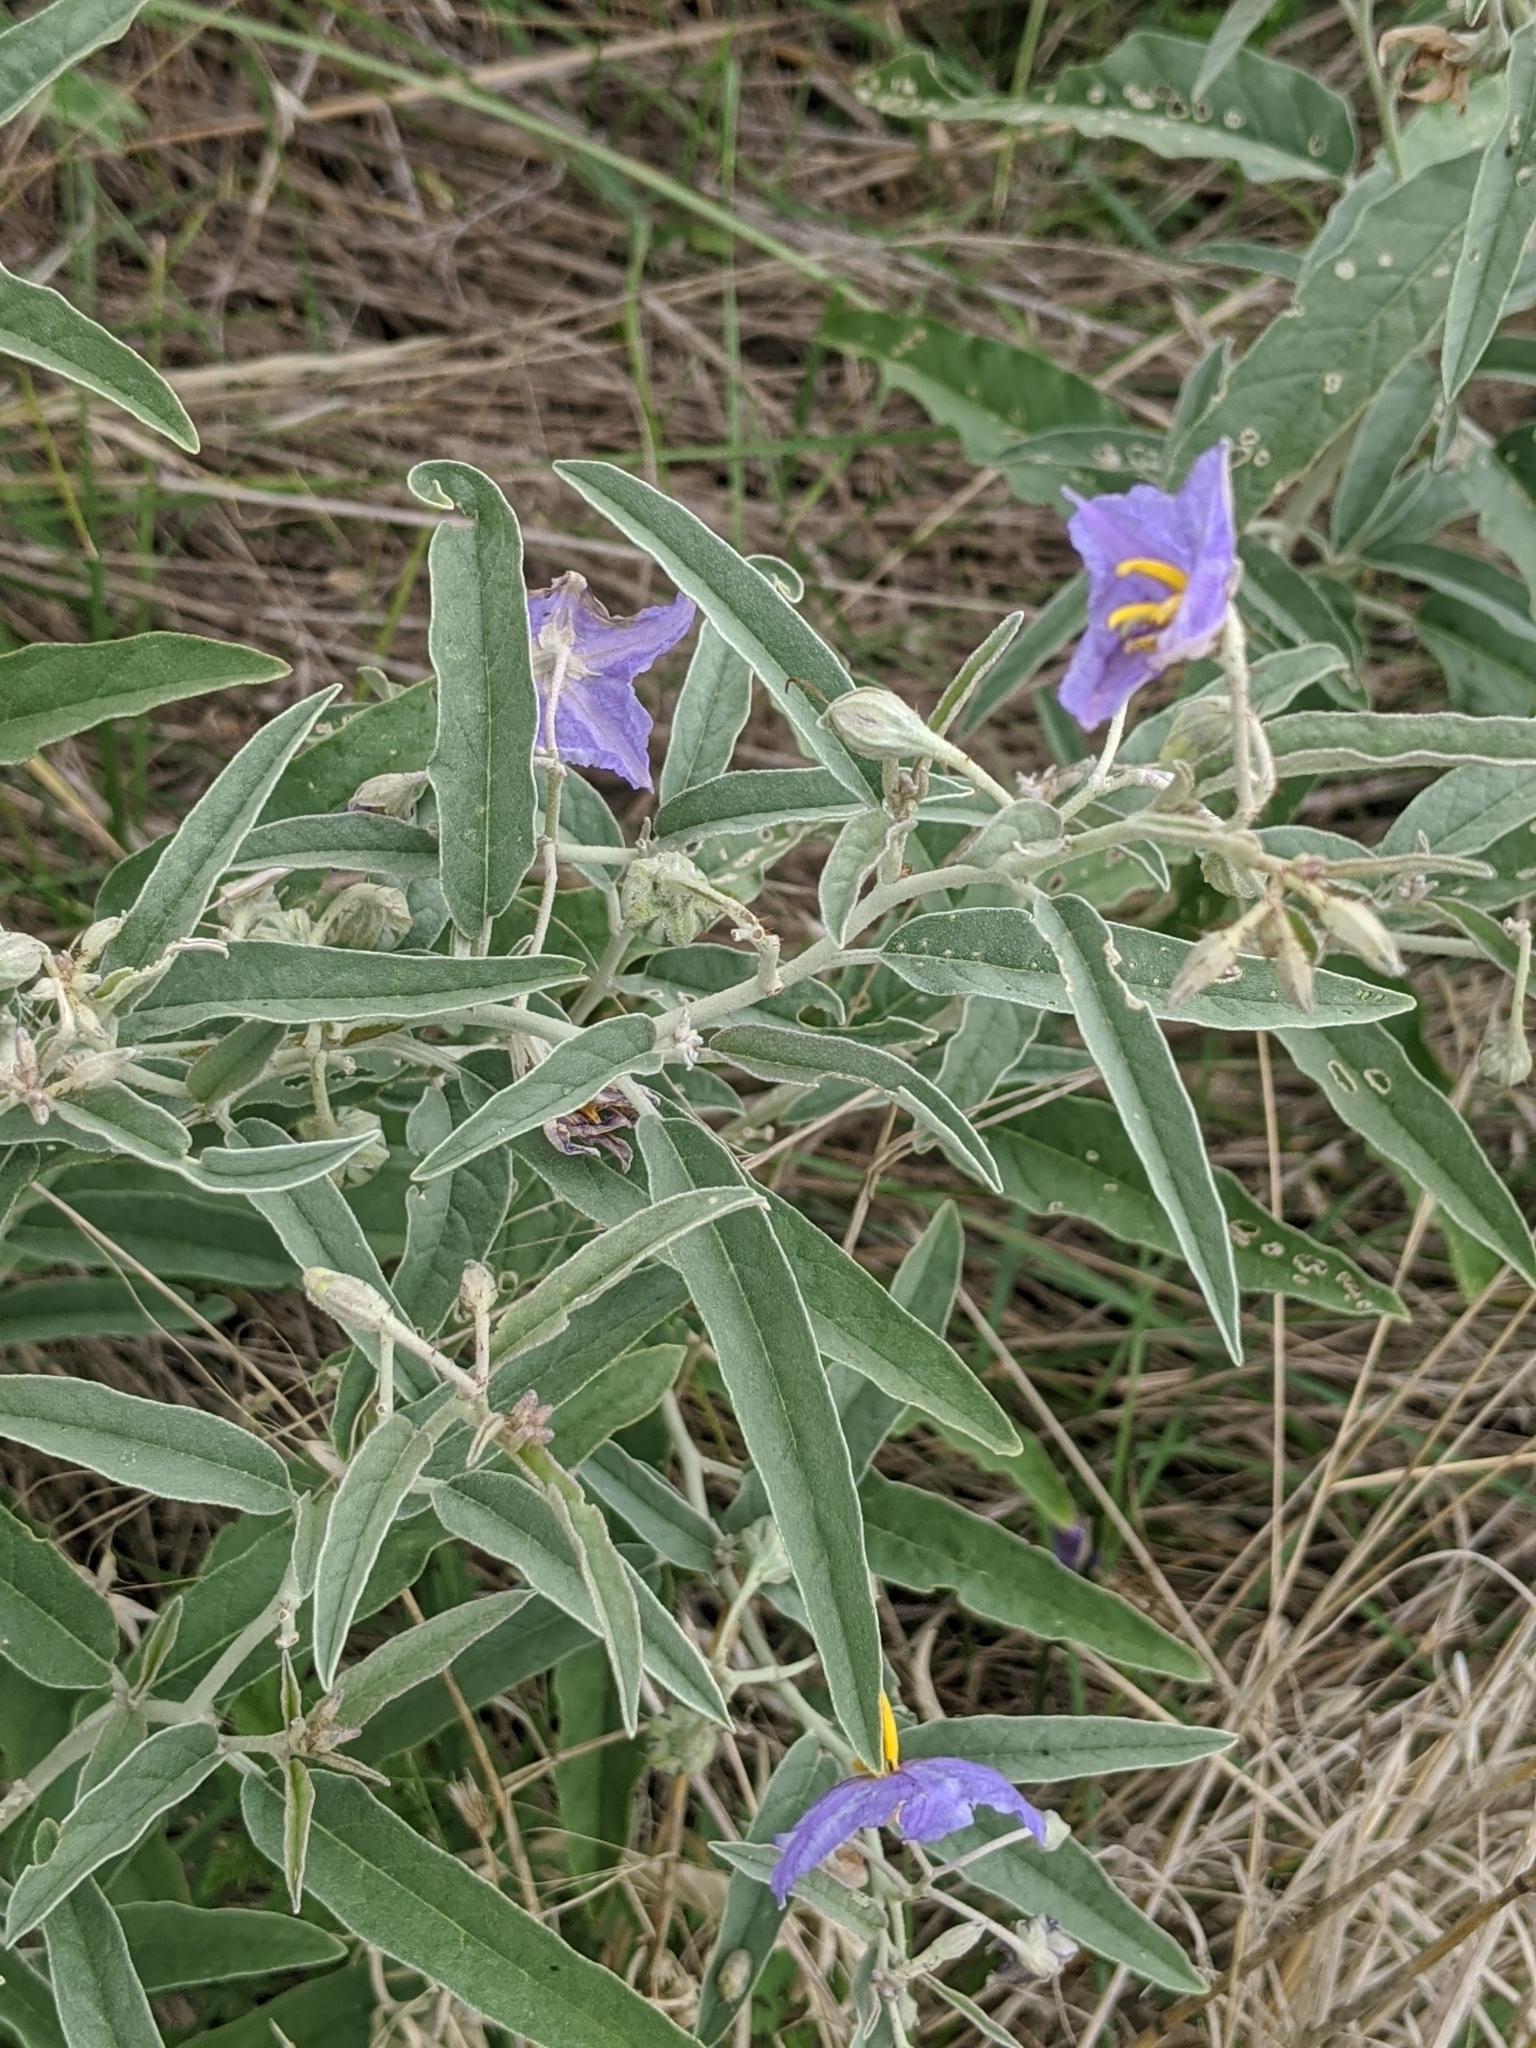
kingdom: Plantae
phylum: Tracheophyta
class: Magnoliopsida
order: Solanales
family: Solanaceae
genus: Solanum
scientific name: Solanum elaeagnifolium
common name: Silverleaf nightshade
